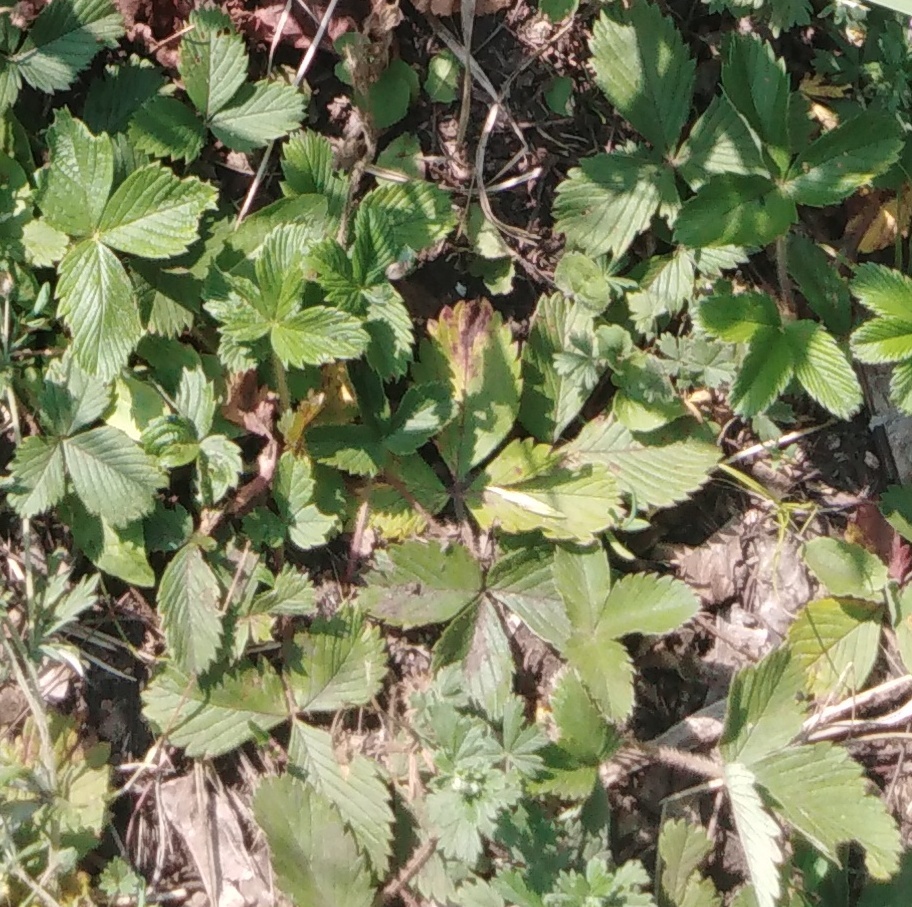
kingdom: Plantae
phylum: Tracheophyta
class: Magnoliopsida
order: Rosales
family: Rosaceae
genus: Fragaria
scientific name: Fragaria viridis
